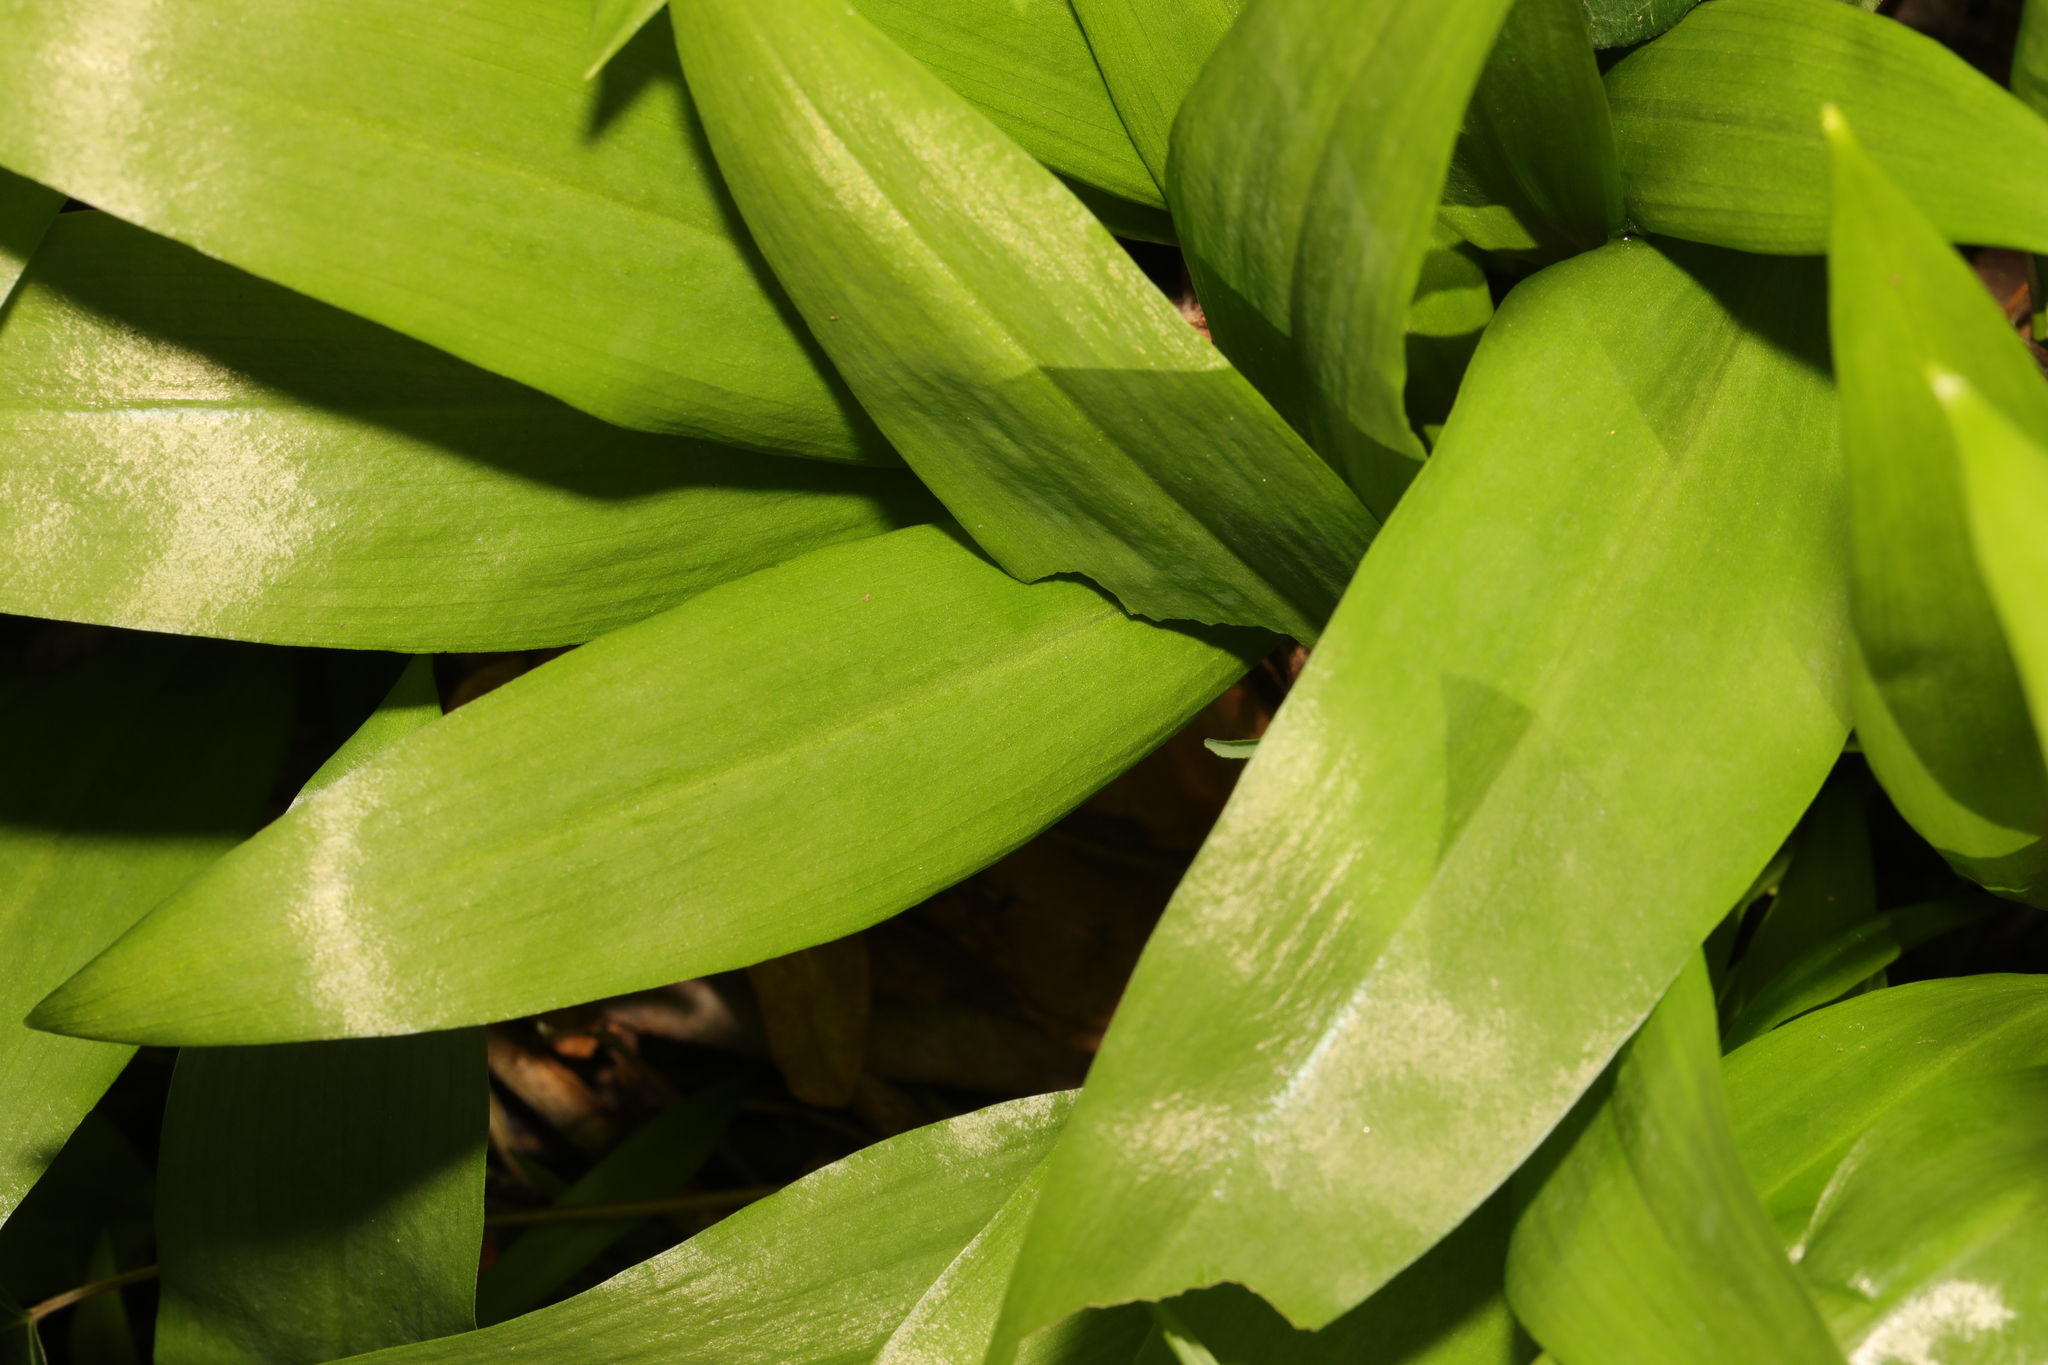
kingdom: Plantae
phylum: Tracheophyta
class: Liliopsida
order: Asparagales
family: Amaryllidaceae
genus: Allium
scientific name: Allium ursinum
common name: Ramsons
